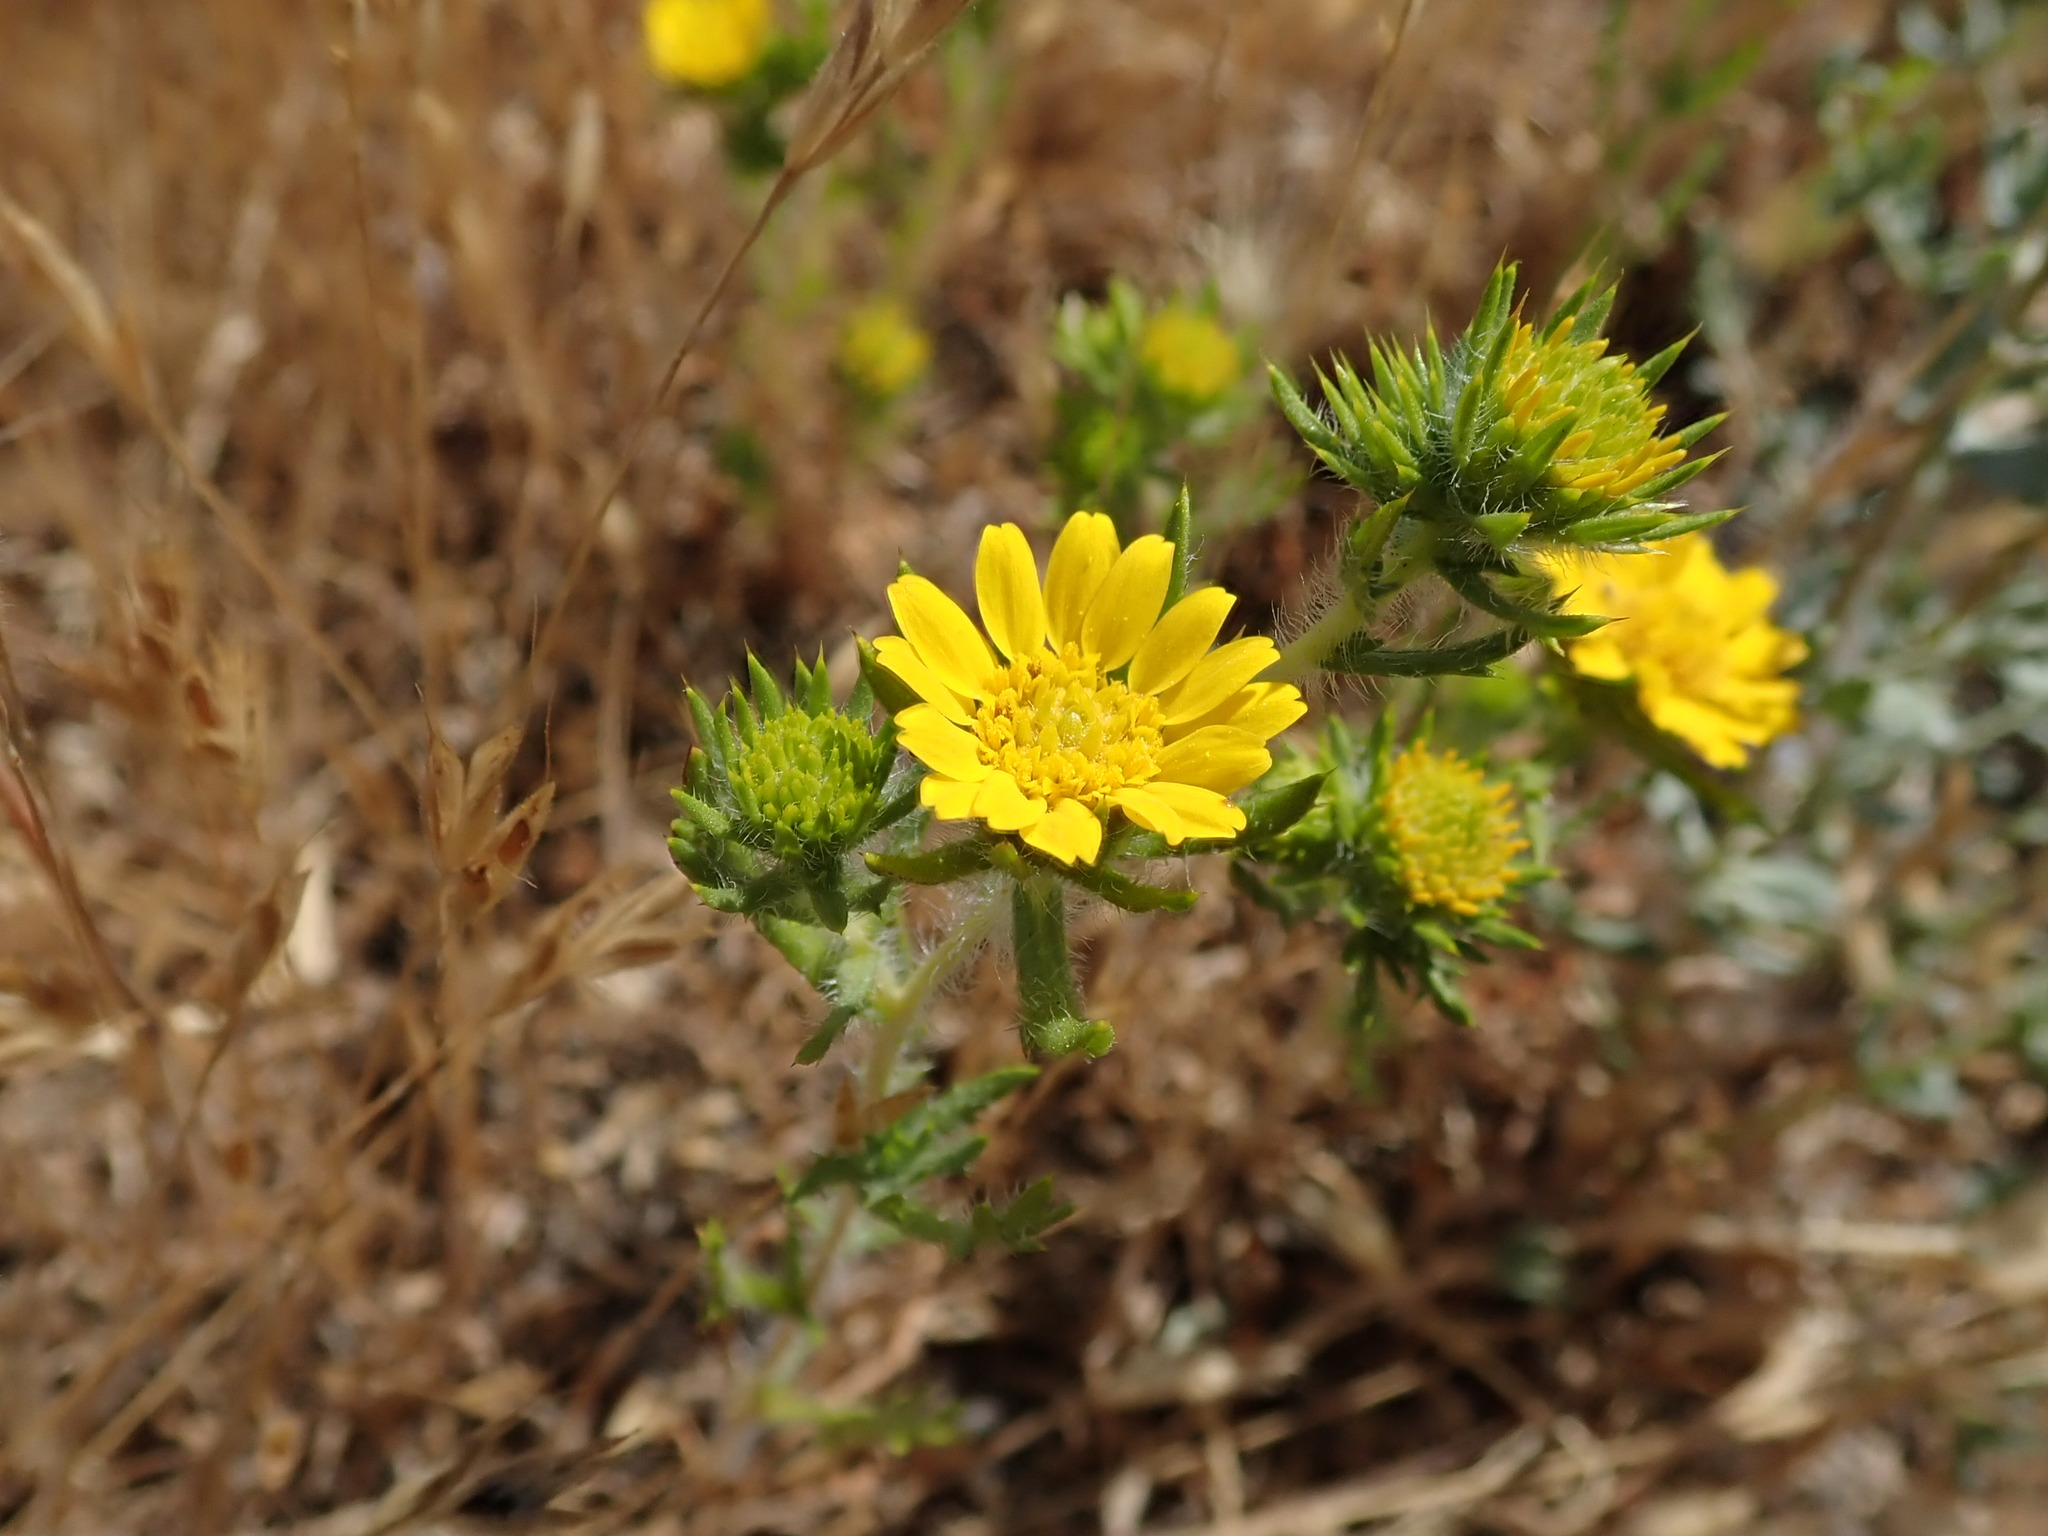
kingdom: Plantae
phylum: Tracheophyta
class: Magnoliopsida
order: Asterales
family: Asteraceae
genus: Centromadia
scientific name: Centromadia pungens
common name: Common spikeweed
